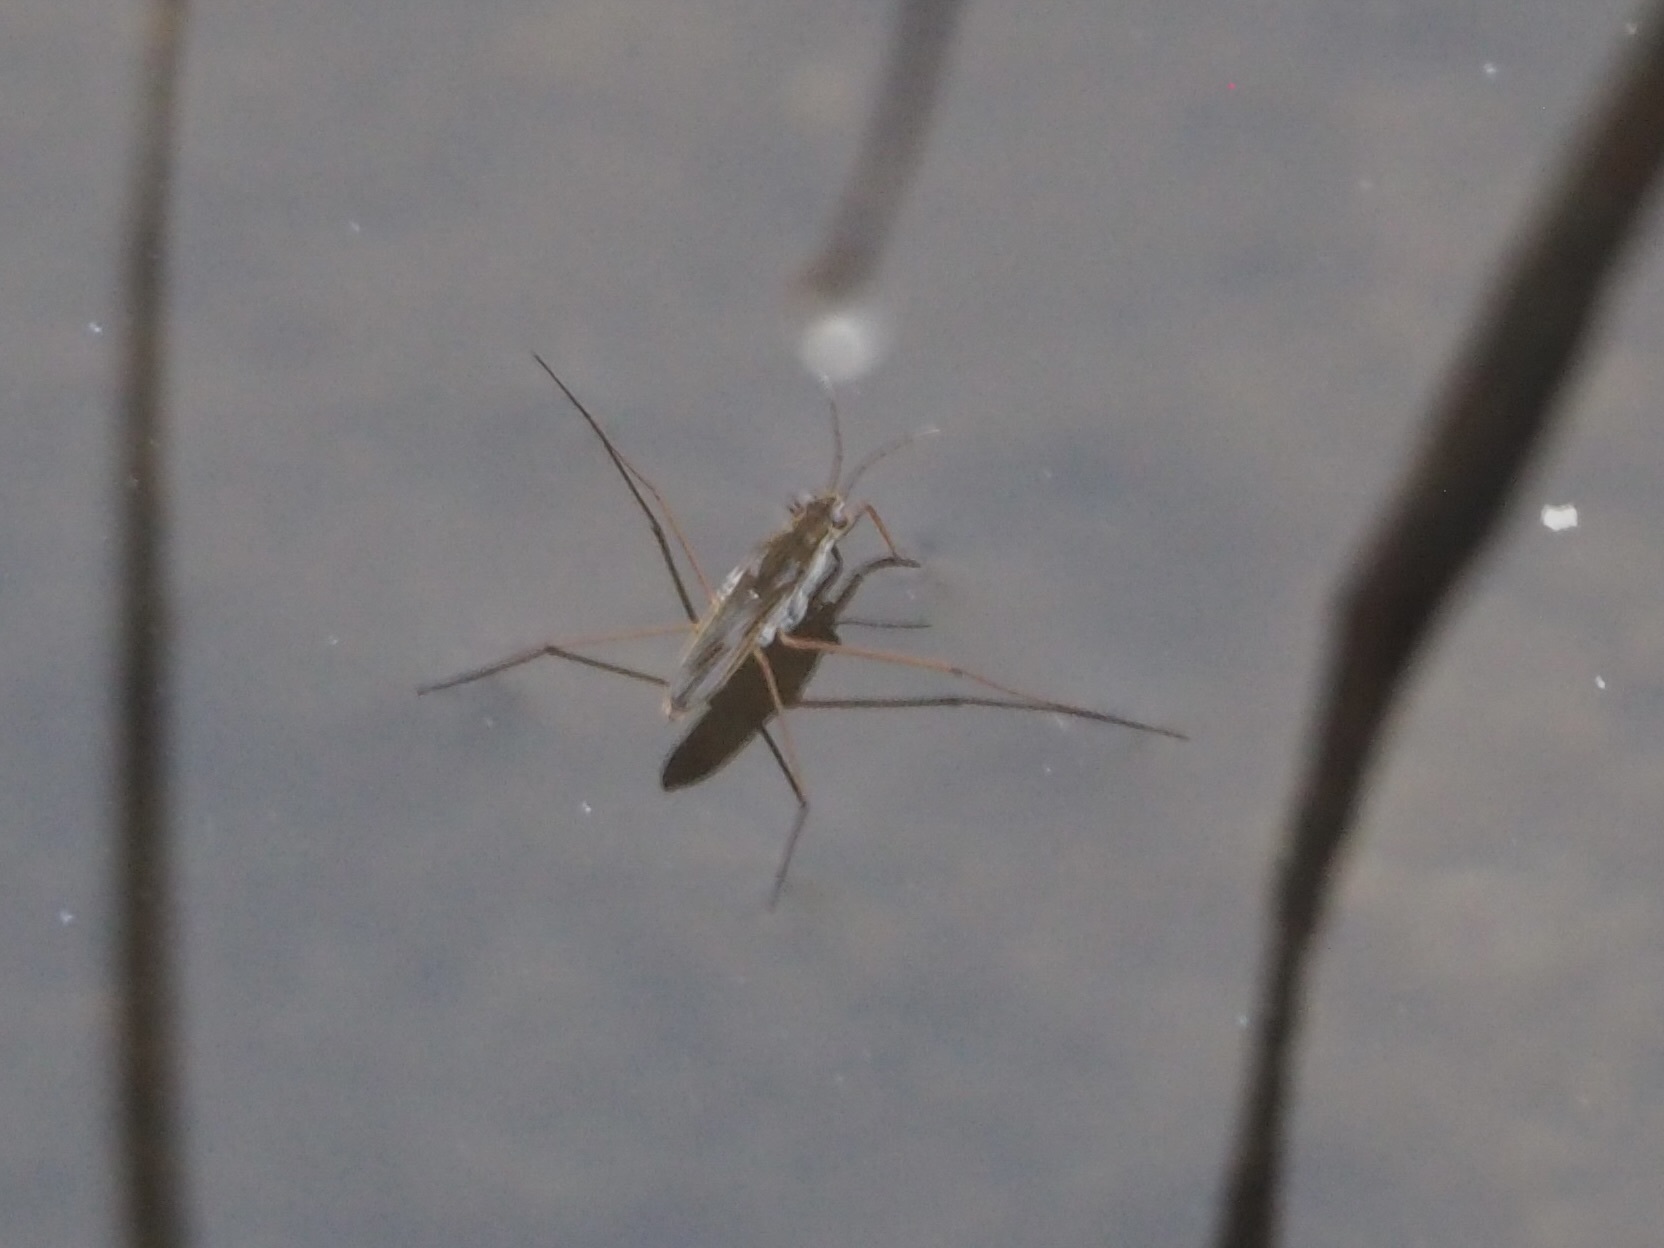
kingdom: Animalia
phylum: Arthropoda
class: Insecta
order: Hemiptera
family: Gerridae
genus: Gerris
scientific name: Gerris latiabdominis
